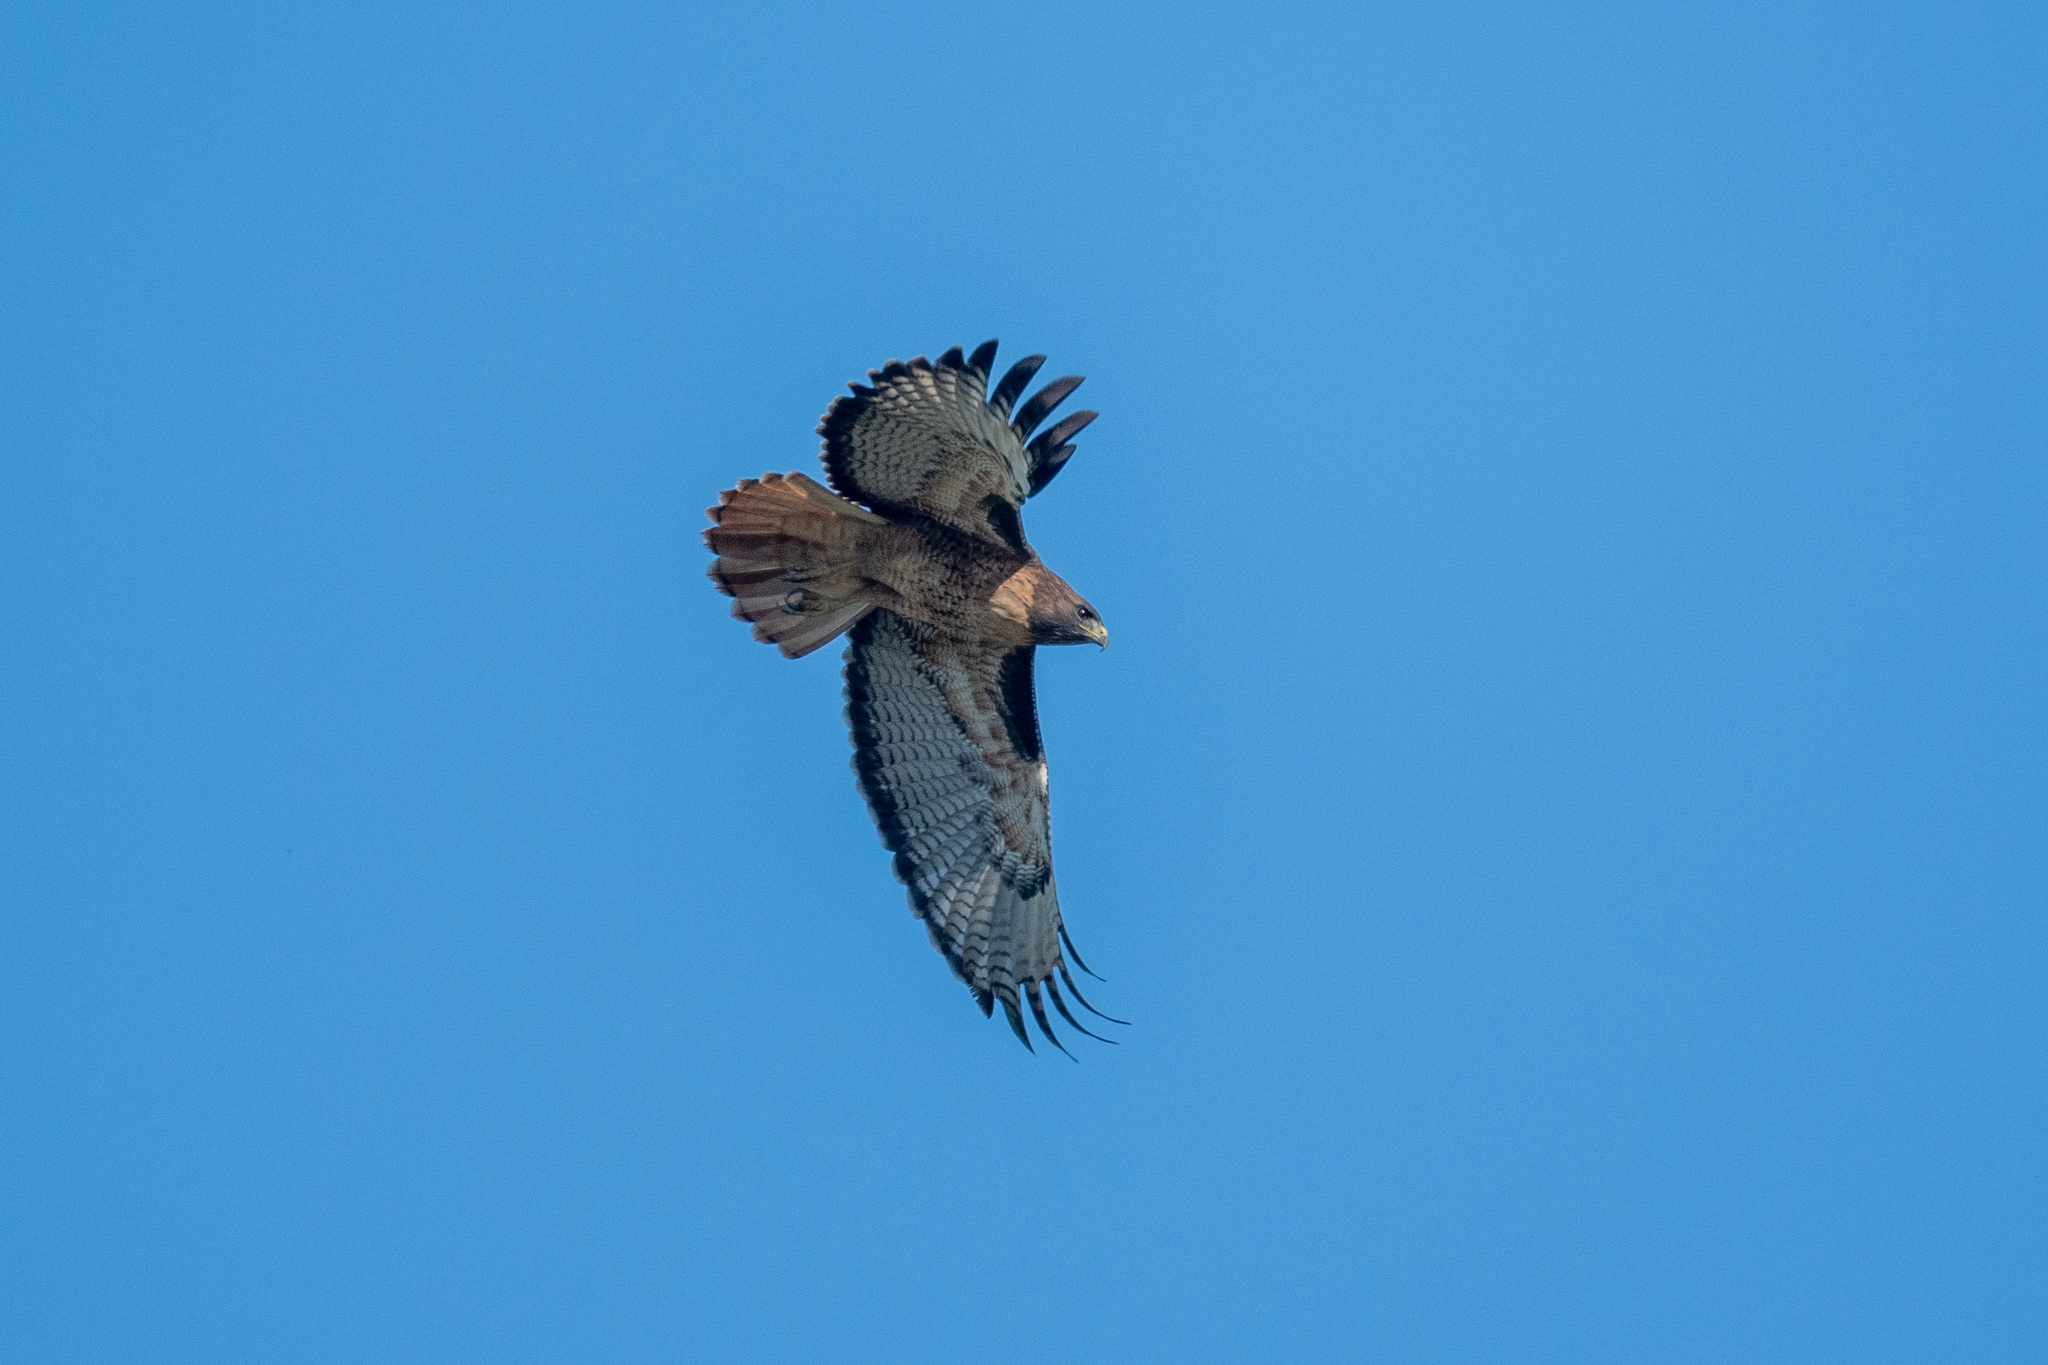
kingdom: Animalia
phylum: Chordata
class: Aves
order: Accipitriformes
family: Accipitridae
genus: Buteo
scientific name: Buteo jamaicensis
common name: Red-tailed hawk
